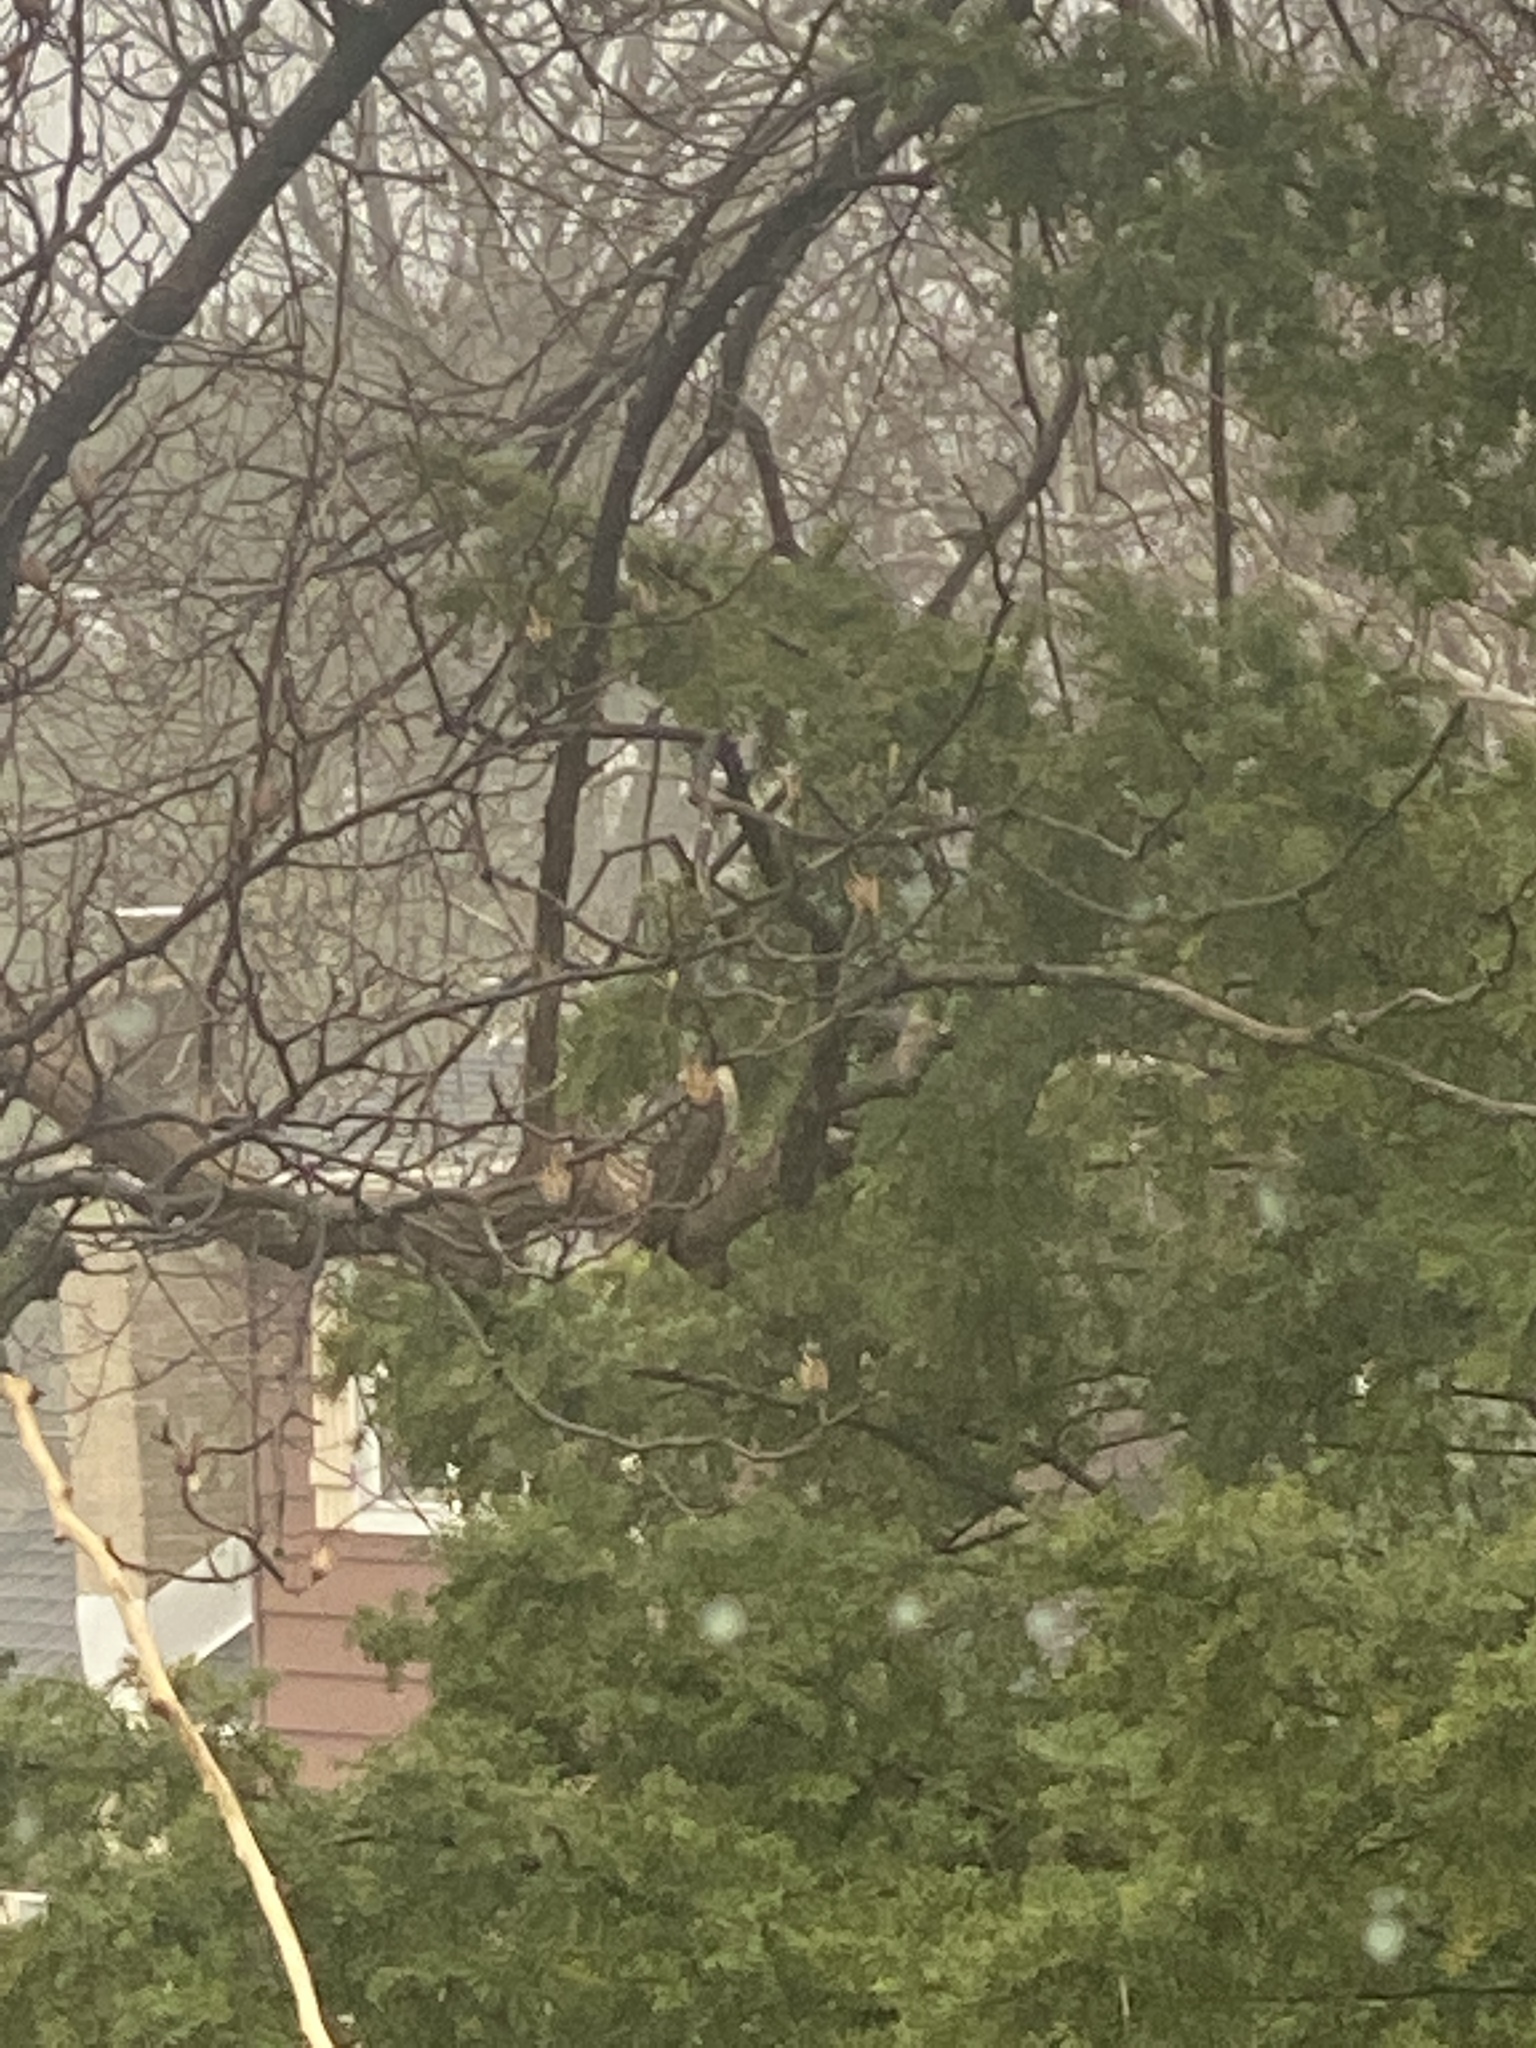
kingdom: Animalia
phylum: Chordata
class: Aves
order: Accipitriformes
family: Accipitridae
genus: Accipiter
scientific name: Accipiter striatus
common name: Sharp-shinned hawk
